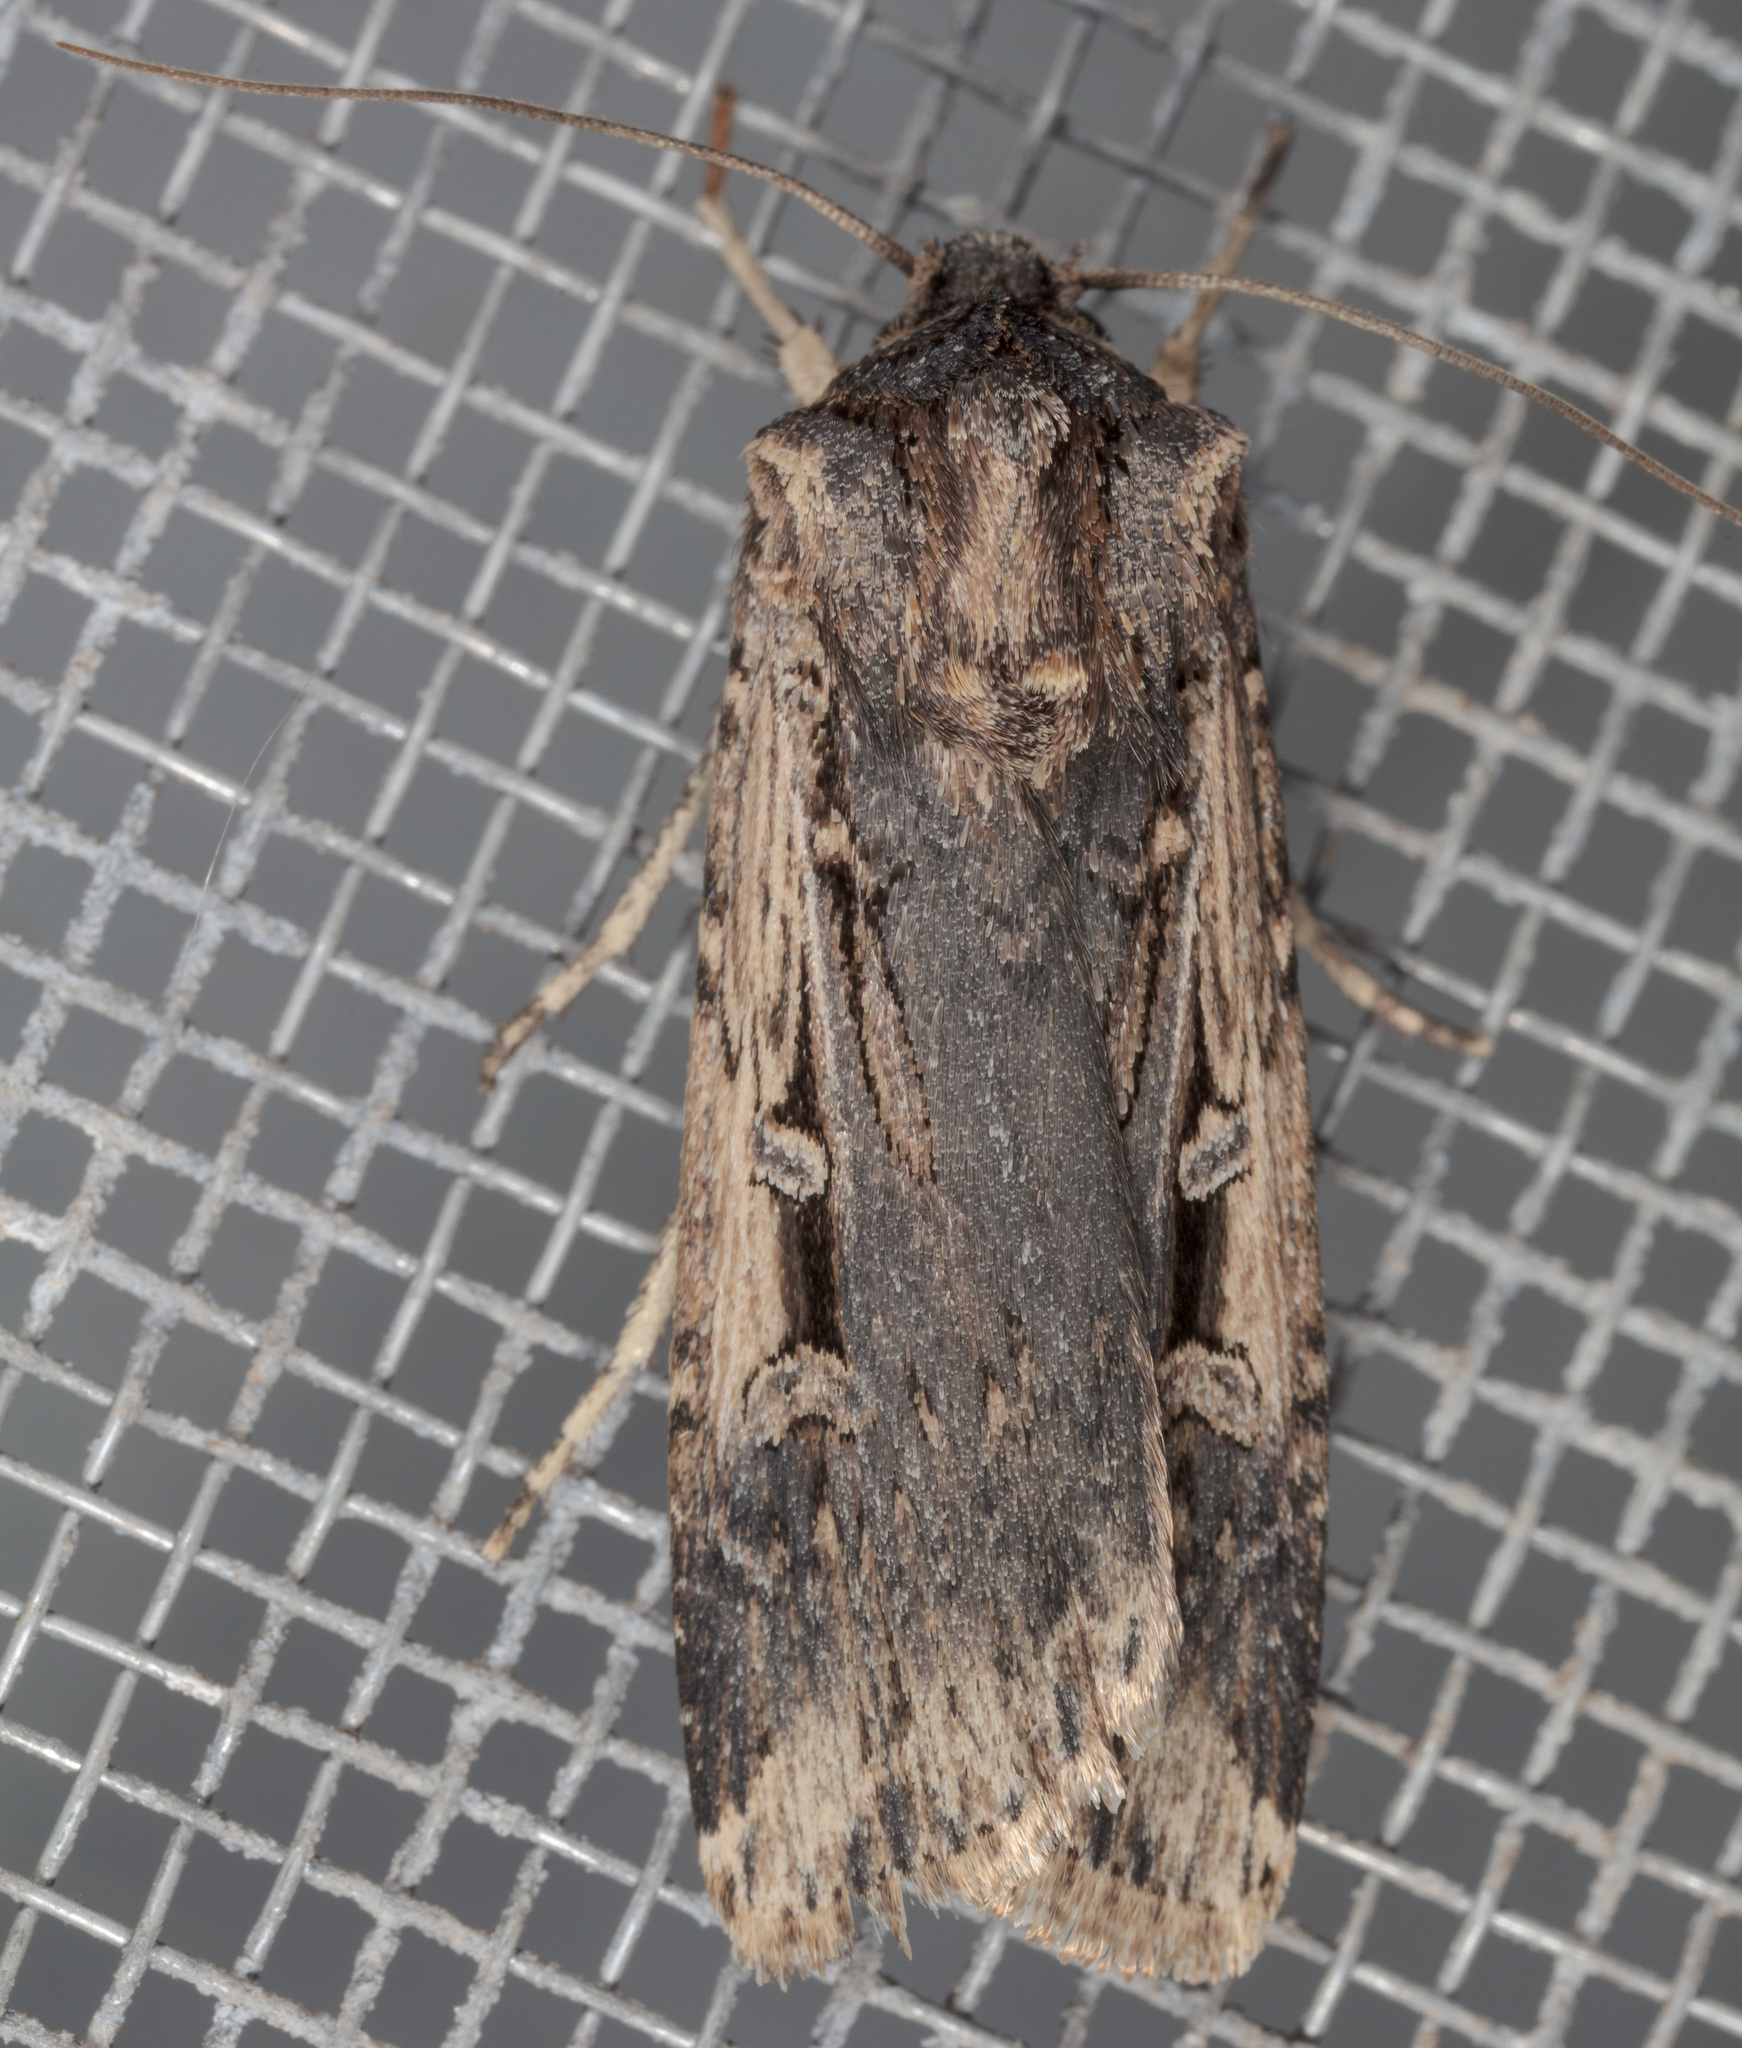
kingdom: Animalia
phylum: Arthropoda
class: Insecta
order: Lepidoptera
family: Noctuidae
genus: Feltia
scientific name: Feltia subterranea
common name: Granulate cutworm
